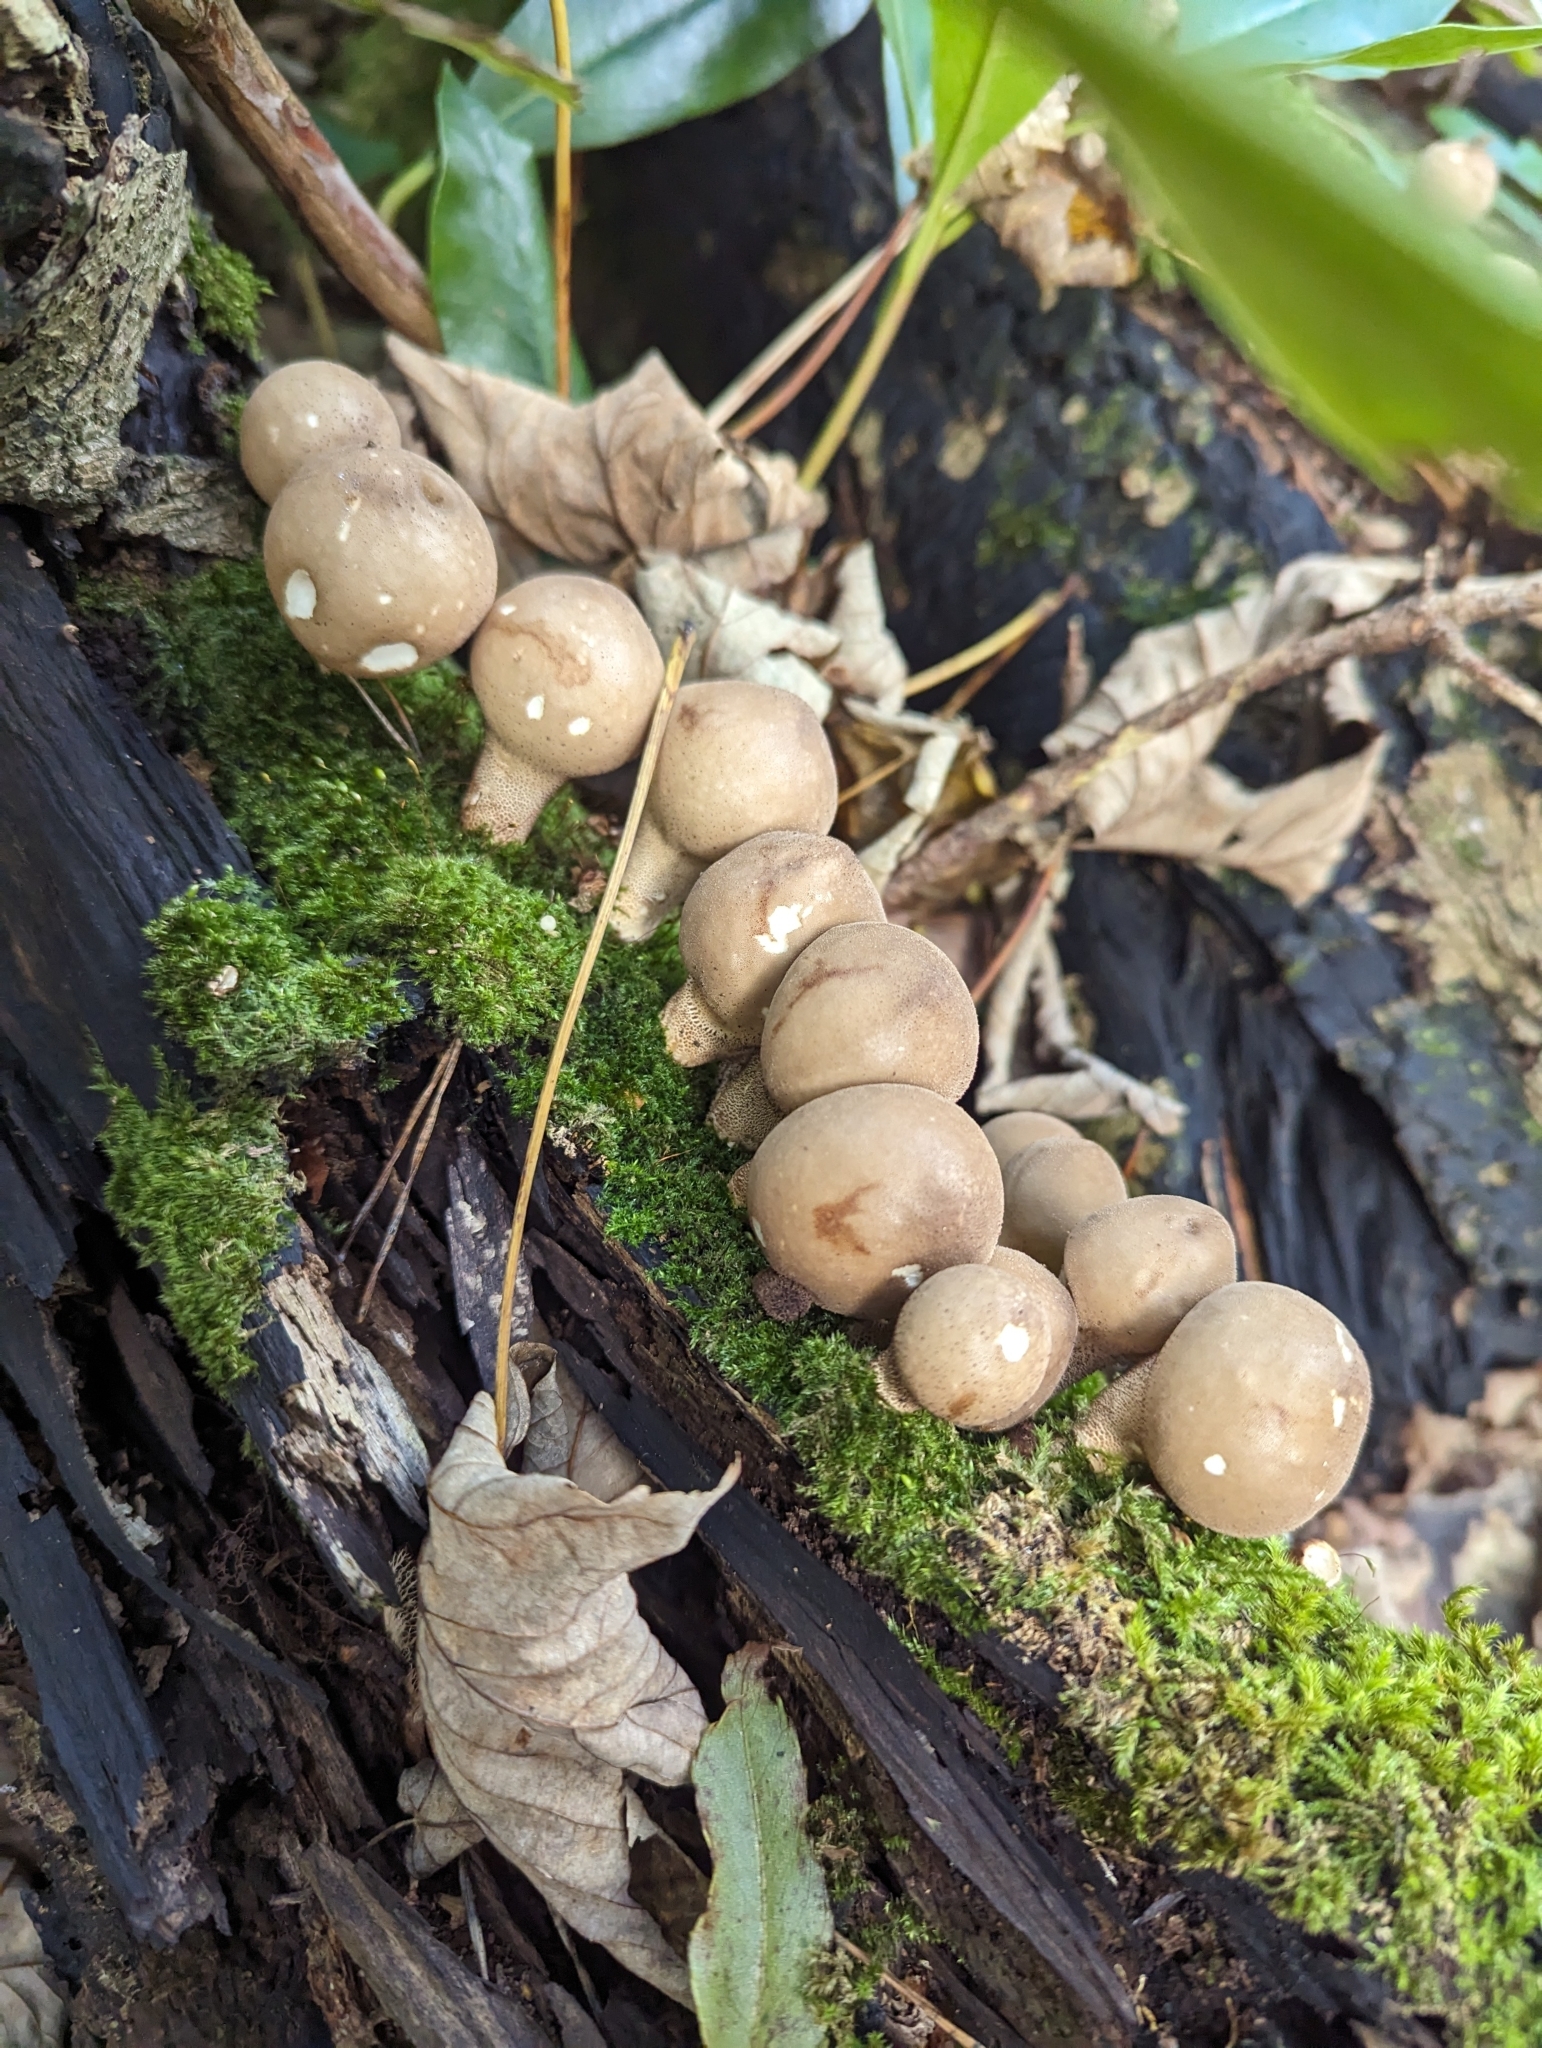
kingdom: Fungi
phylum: Basidiomycota
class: Agaricomycetes
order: Agaricales
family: Lycoperdaceae
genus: Apioperdon
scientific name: Apioperdon pyriforme
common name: Pear-shaped puffball
